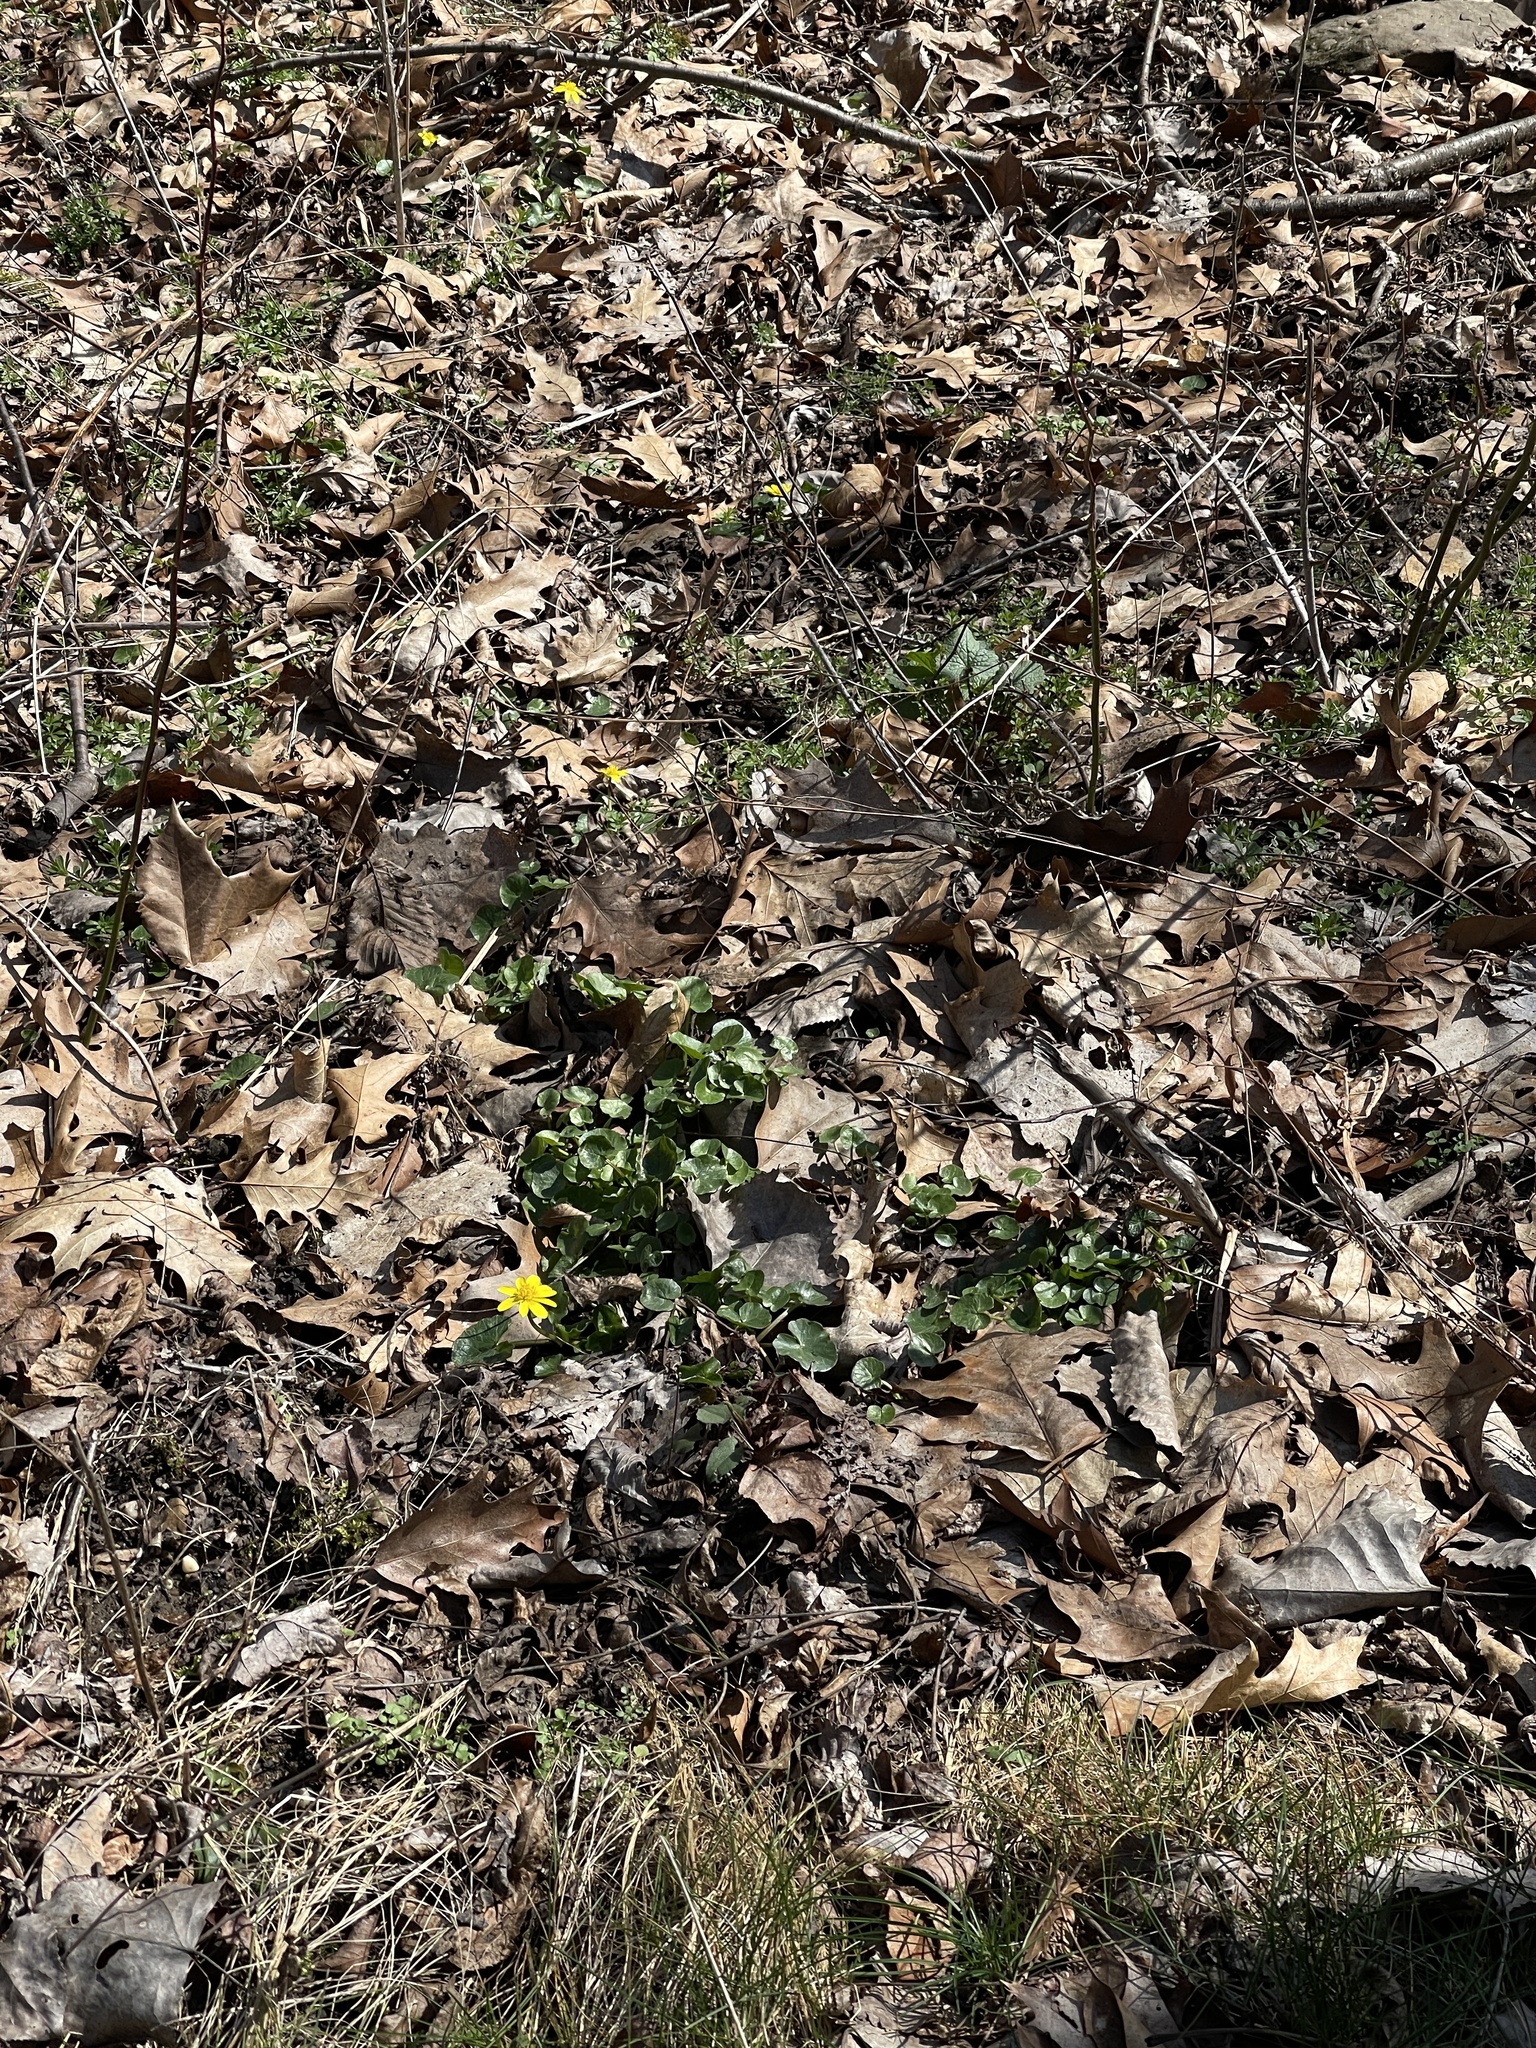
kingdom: Plantae
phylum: Tracheophyta
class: Magnoliopsida
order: Ranunculales
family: Ranunculaceae
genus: Ficaria
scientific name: Ficaria verna
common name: Lesser celandine
